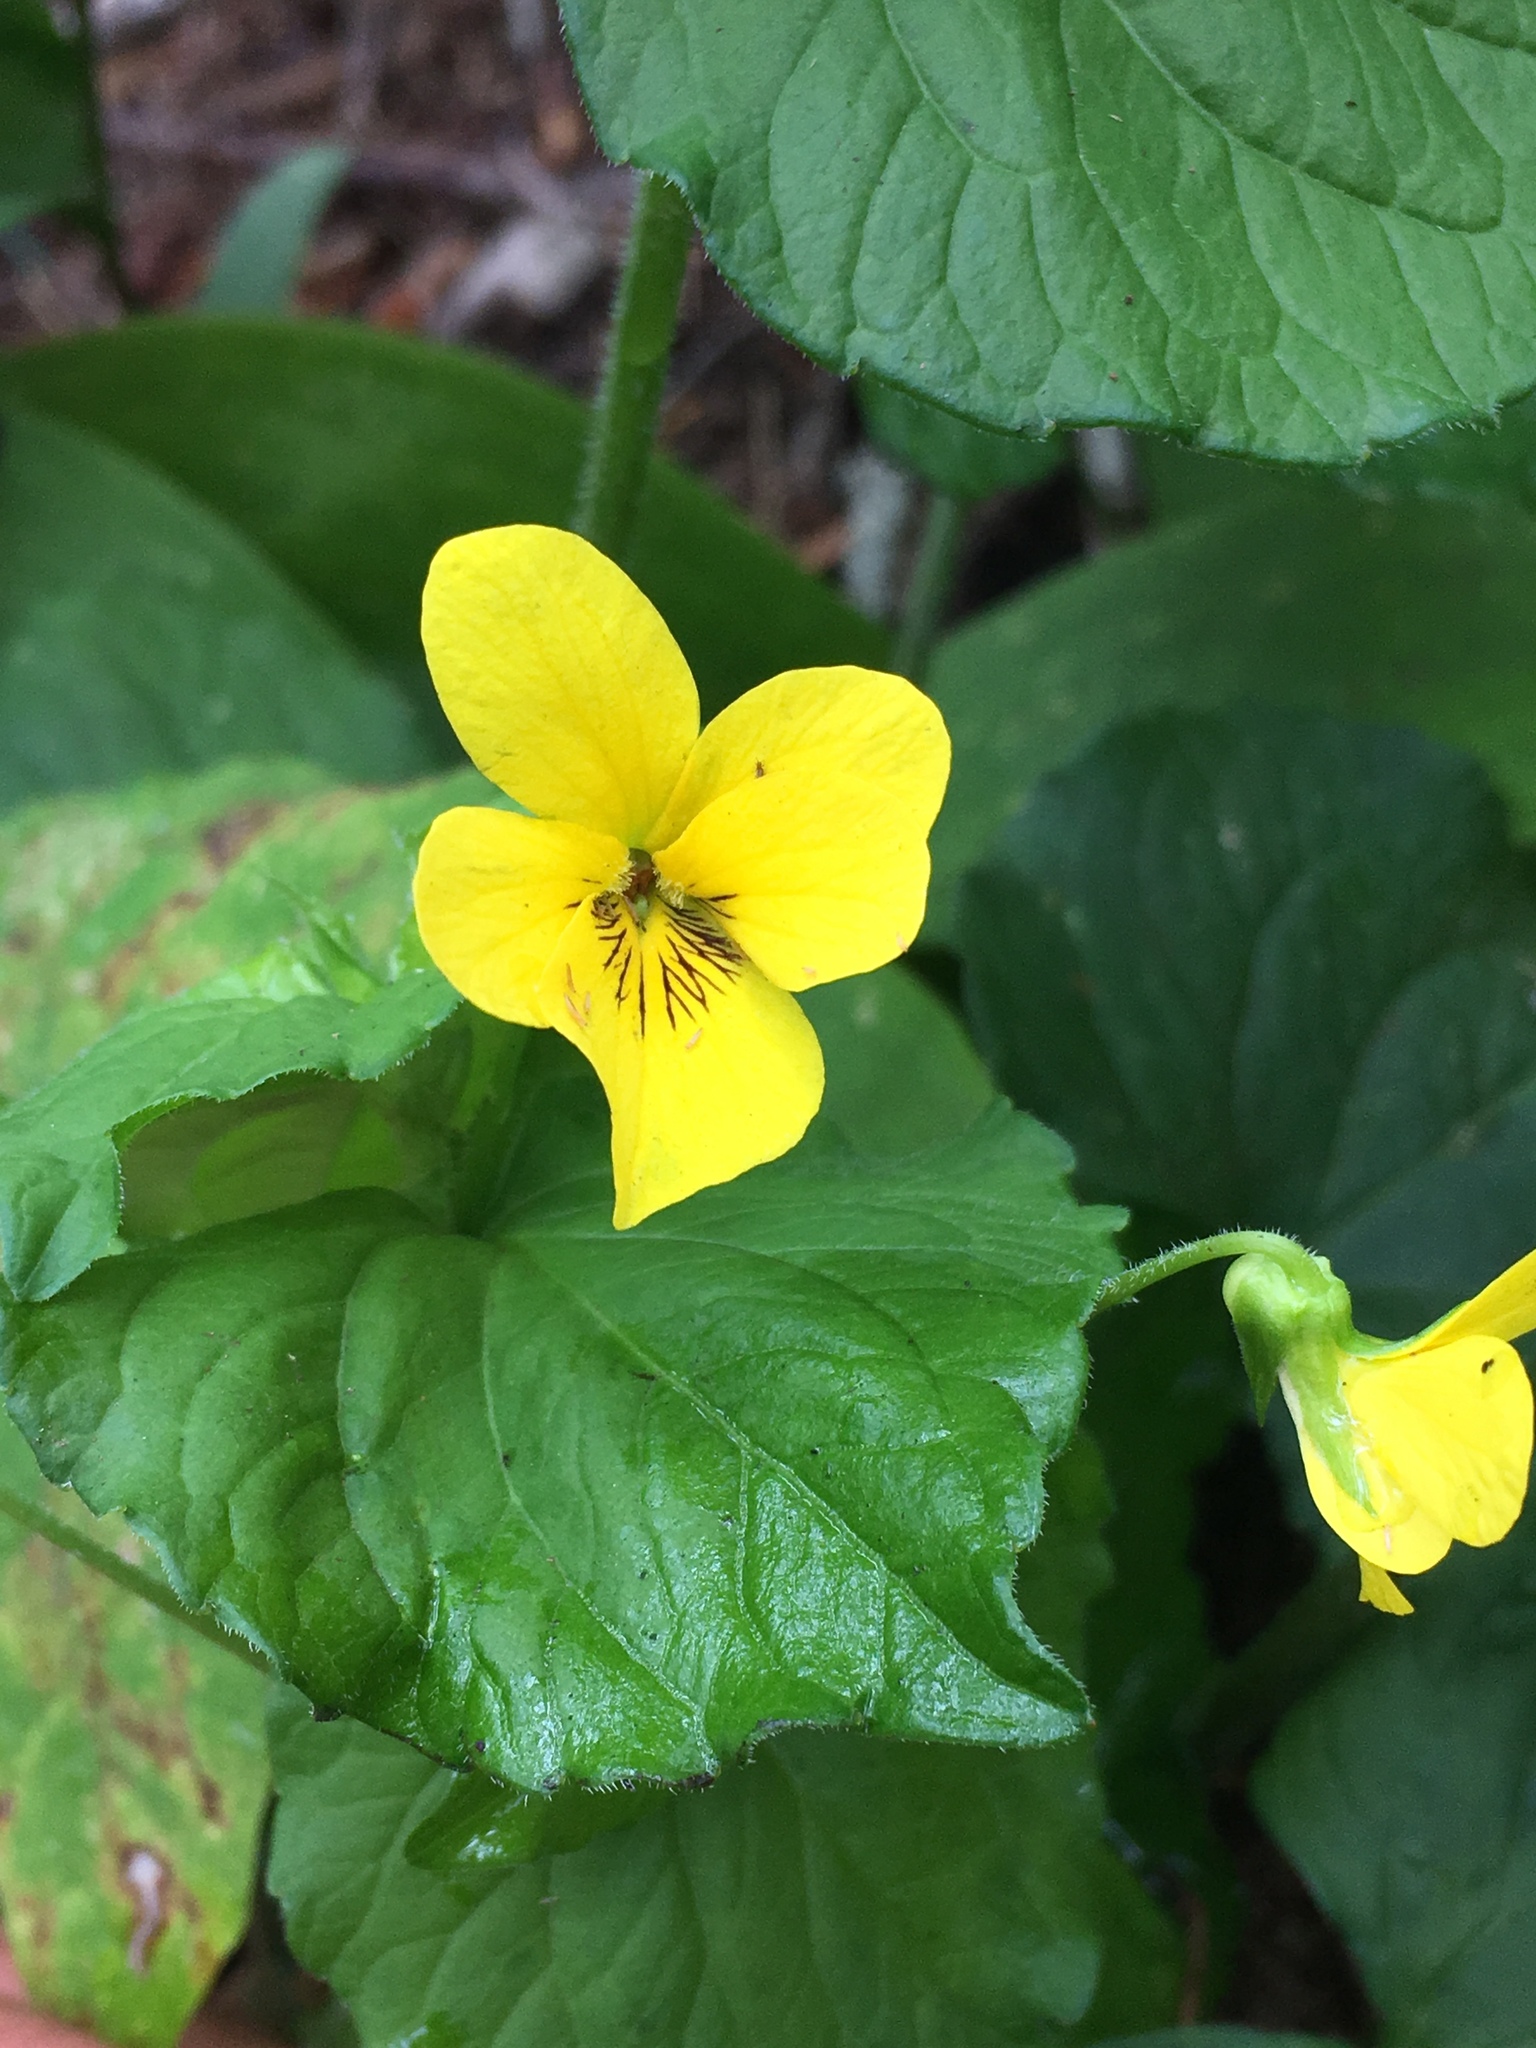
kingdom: Plantae
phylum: Tracheophyta
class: Magnoliopsida
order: Malpighiales
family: Violaceae
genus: Viola
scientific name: Viola glabella
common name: Stream violet
